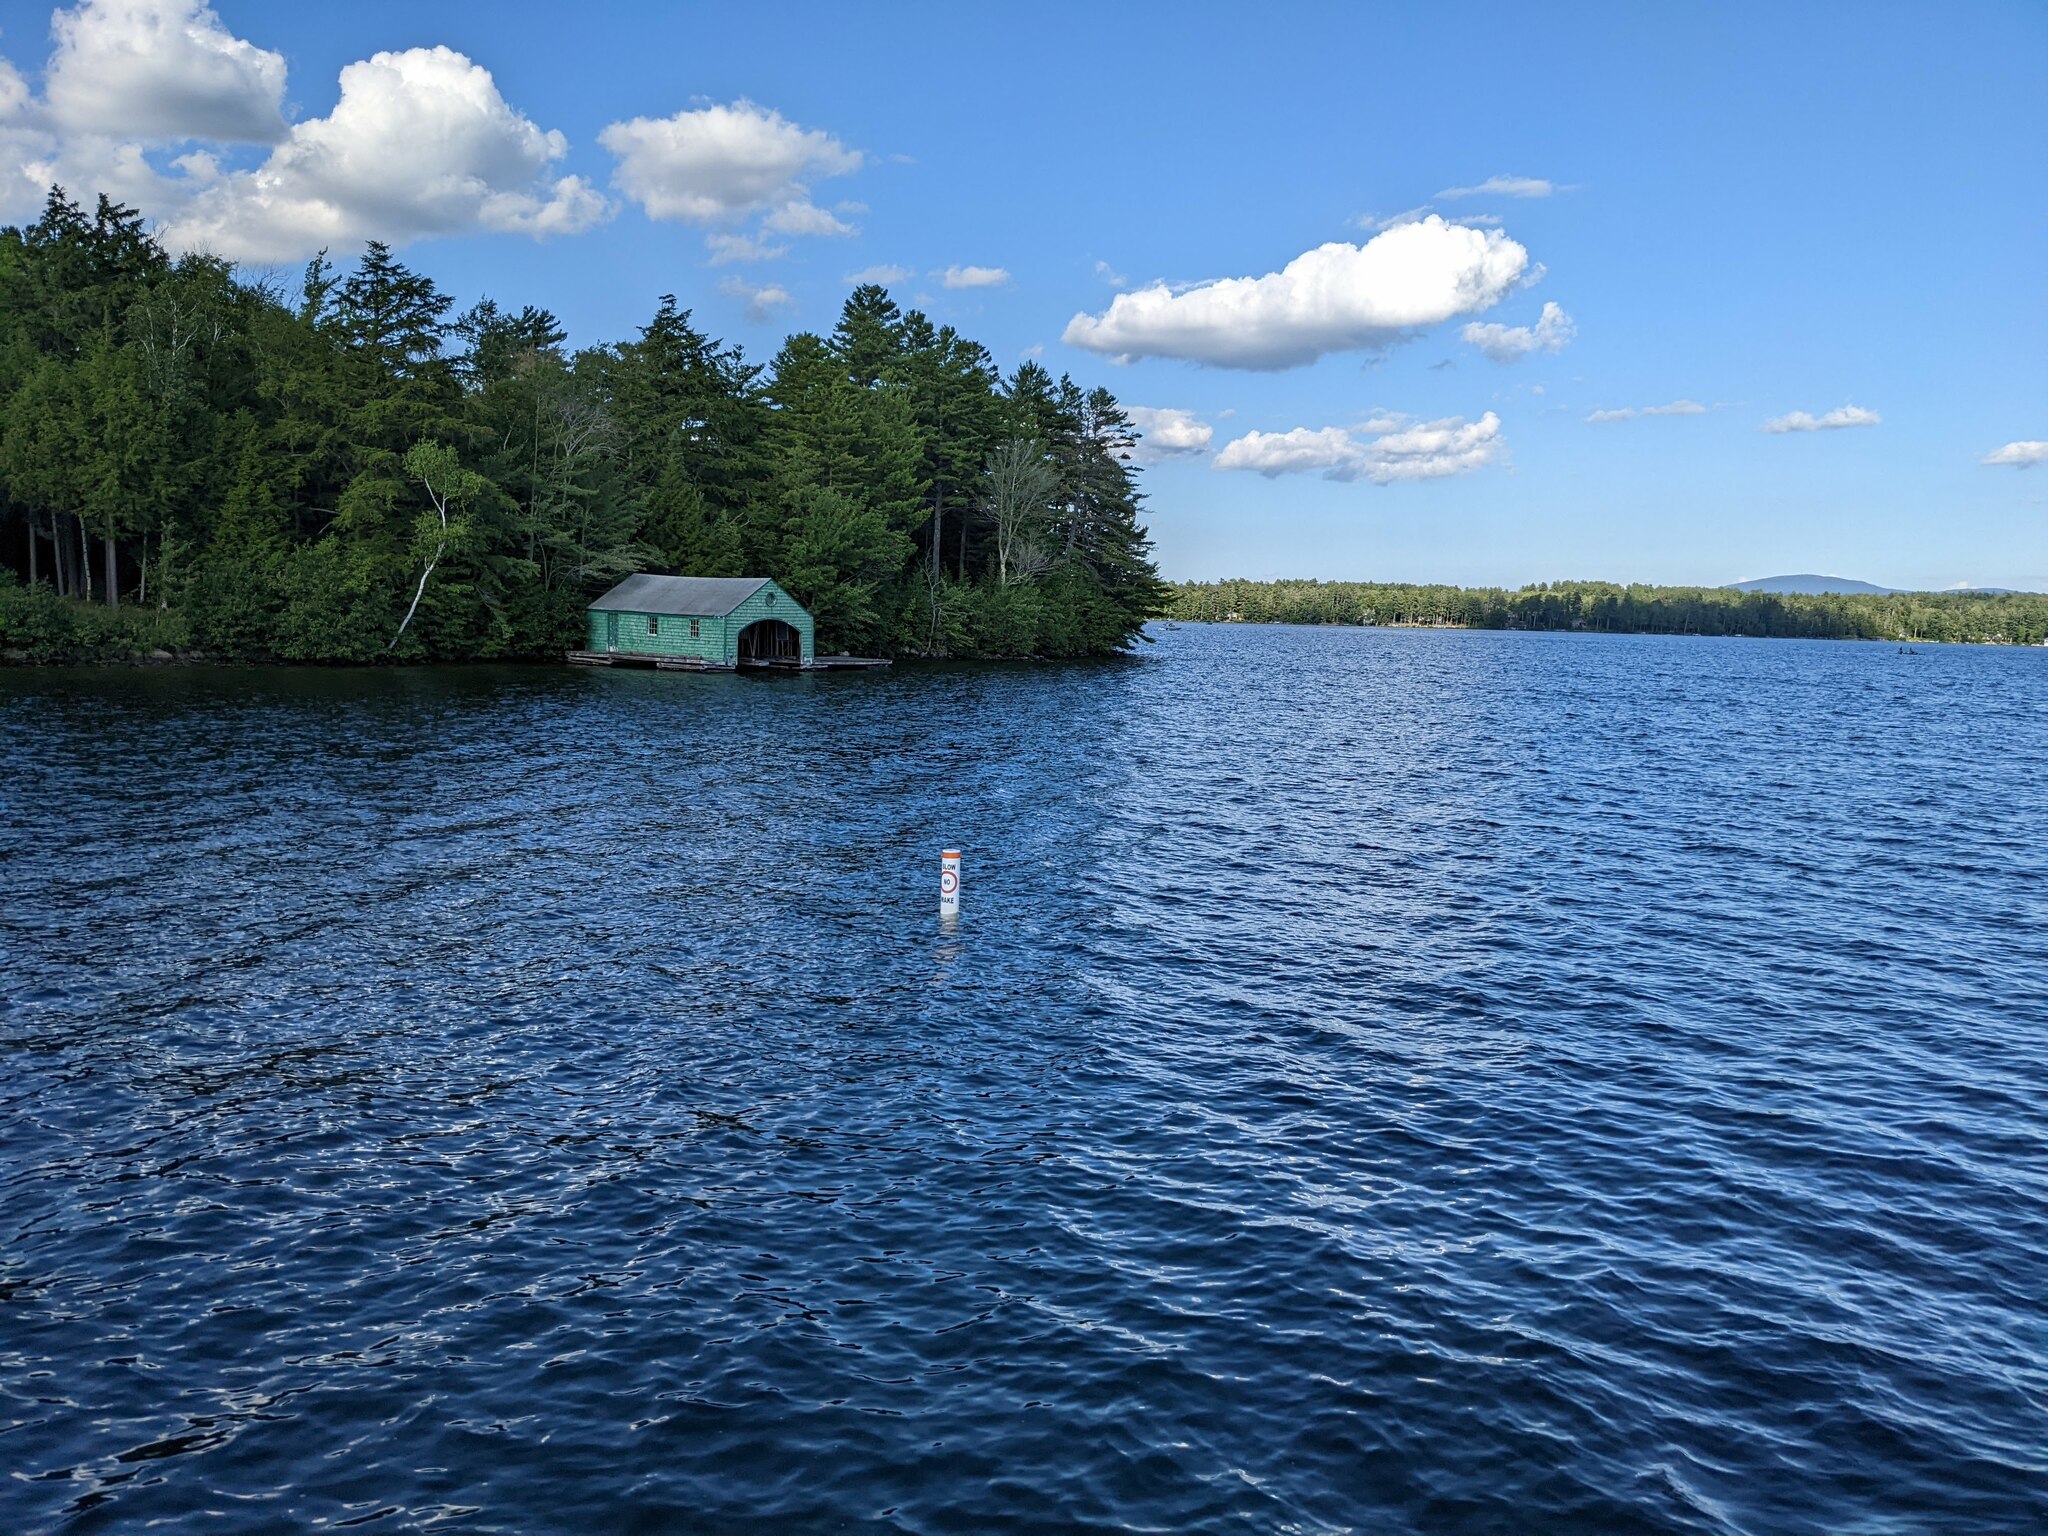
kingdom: Plantae
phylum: Tracheophyta
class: Pinopsida
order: Pinales
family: Pinaceae
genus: Pinus
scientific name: Pinus strobus
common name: Weymouth pine
